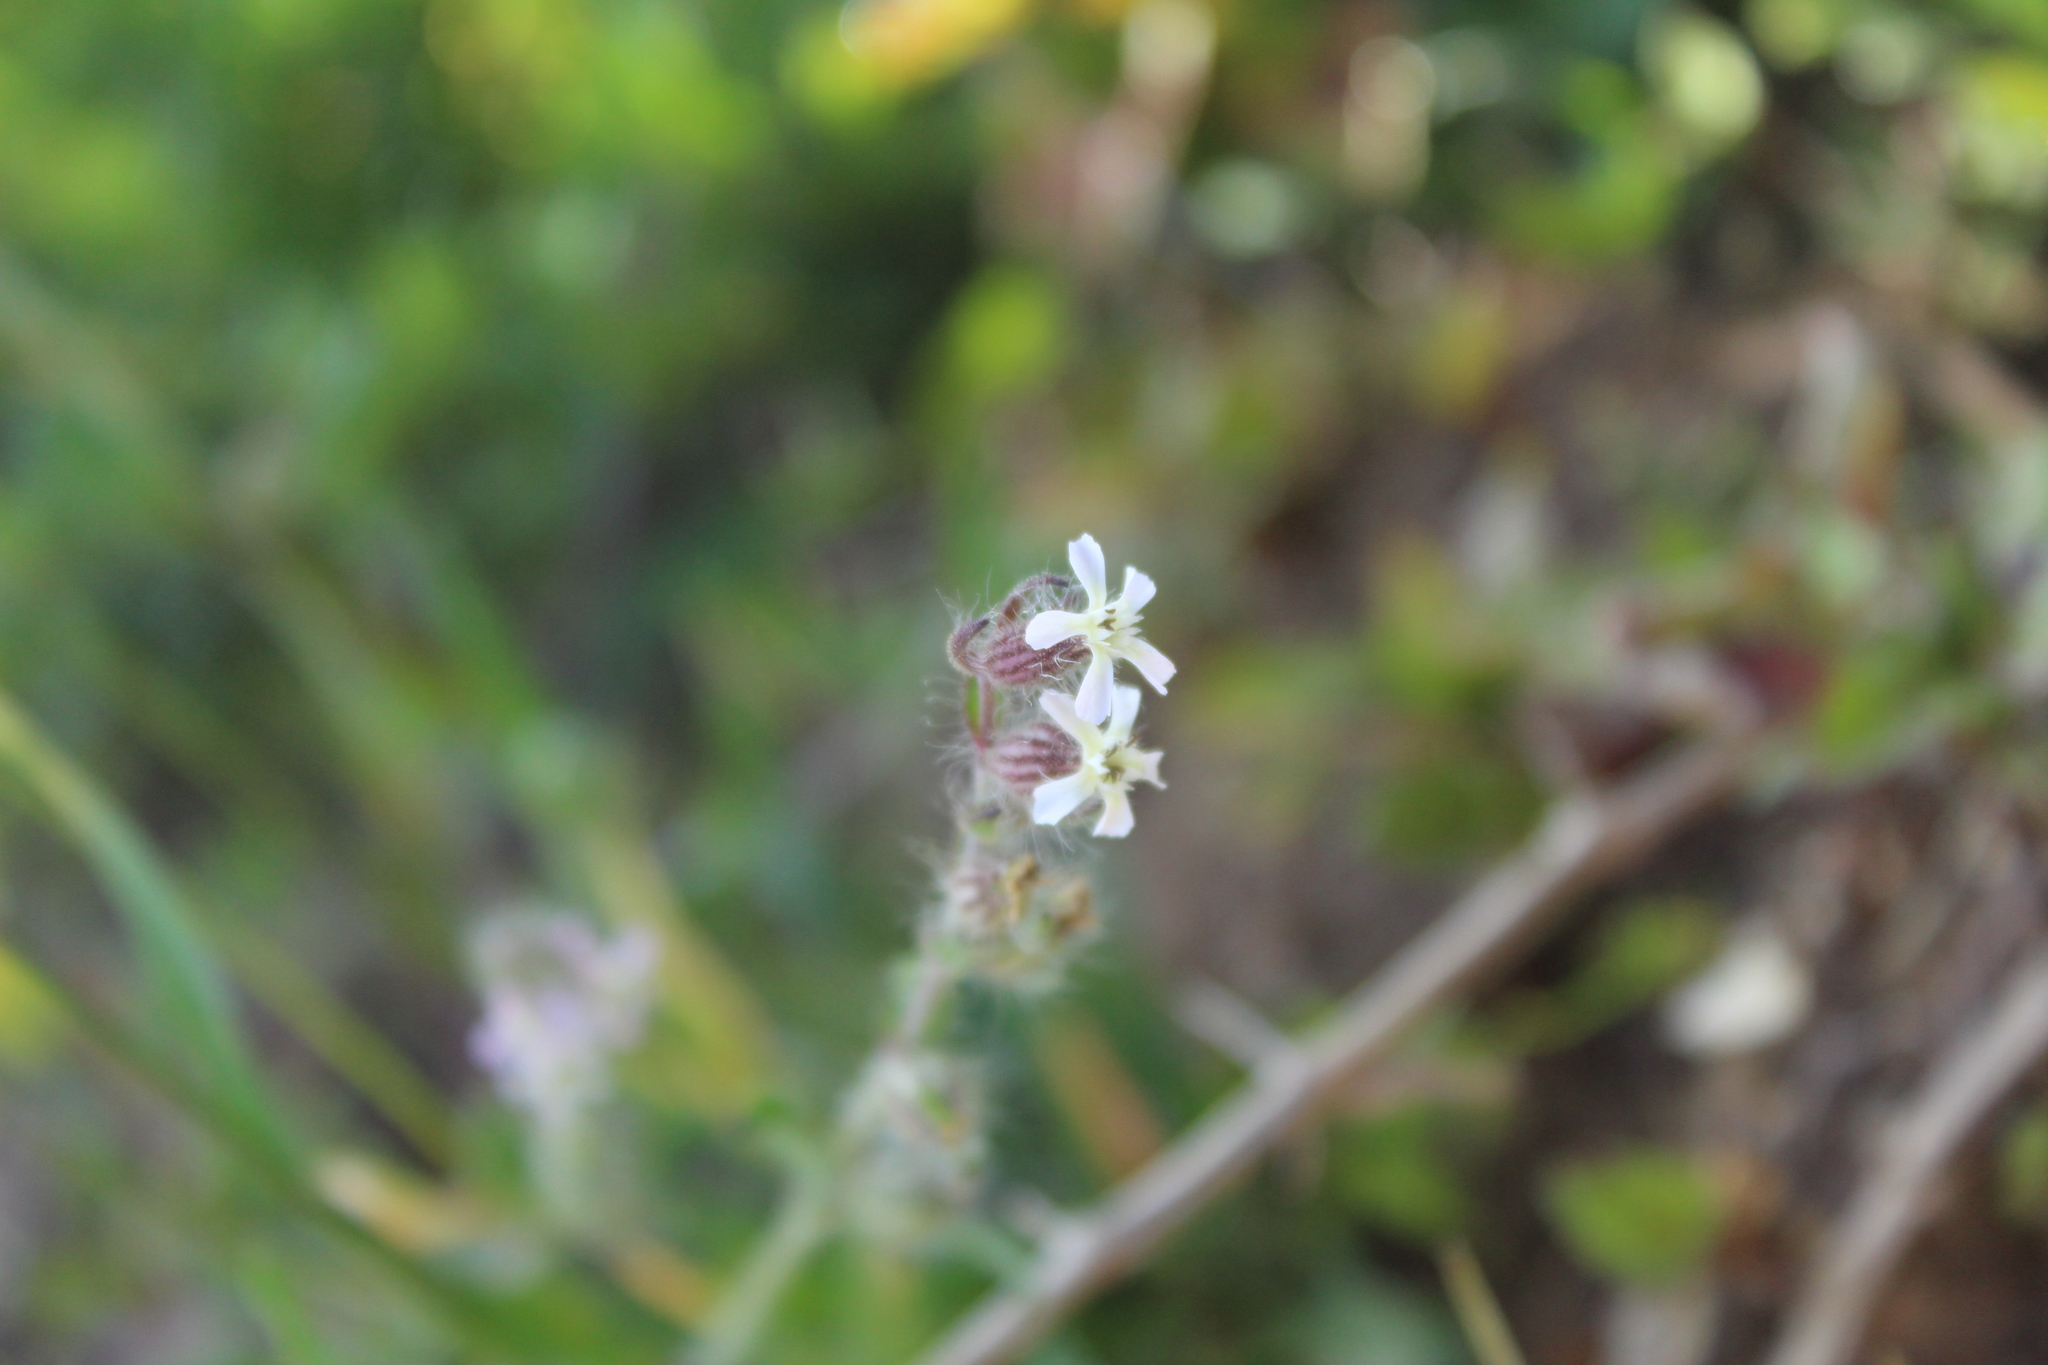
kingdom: Plantae
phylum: Tracheophyta
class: Magnoliopsida
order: Caryophyllales
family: Caryophyllaceae
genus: Silene
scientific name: Silene gallica
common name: Small-flowered catchfly
